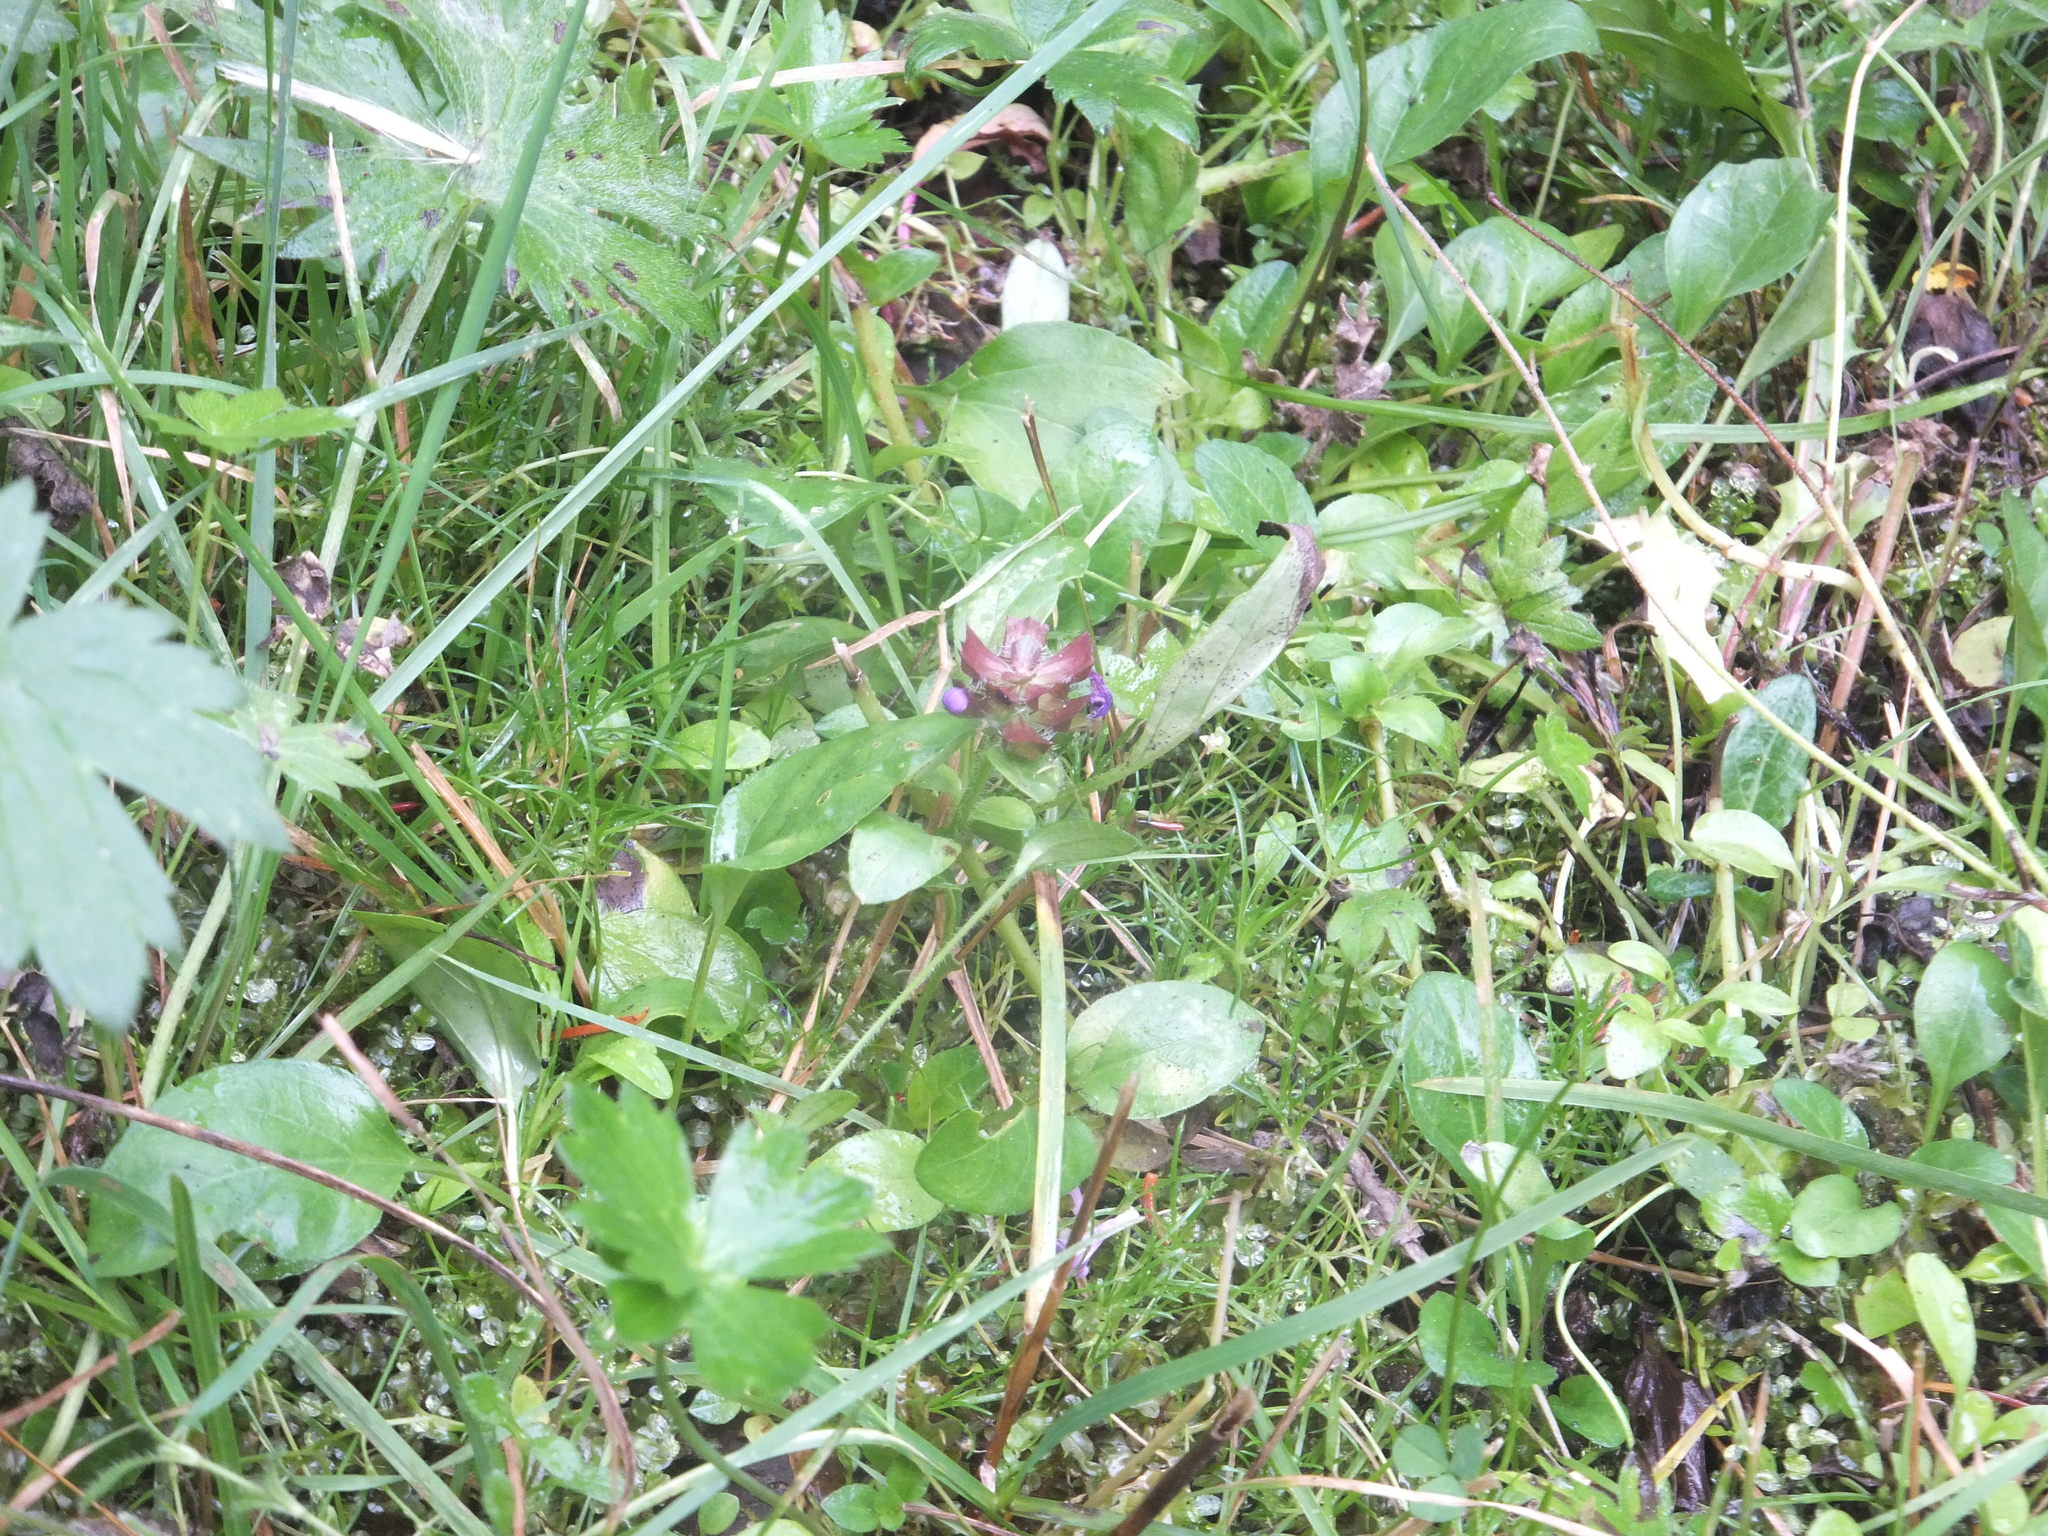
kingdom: Plantae
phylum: Tracheophyta
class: Magnoliopsida
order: Lamiales
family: Lamiaceae
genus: Prunella
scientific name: Prunella vulgaris
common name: Heal-all
